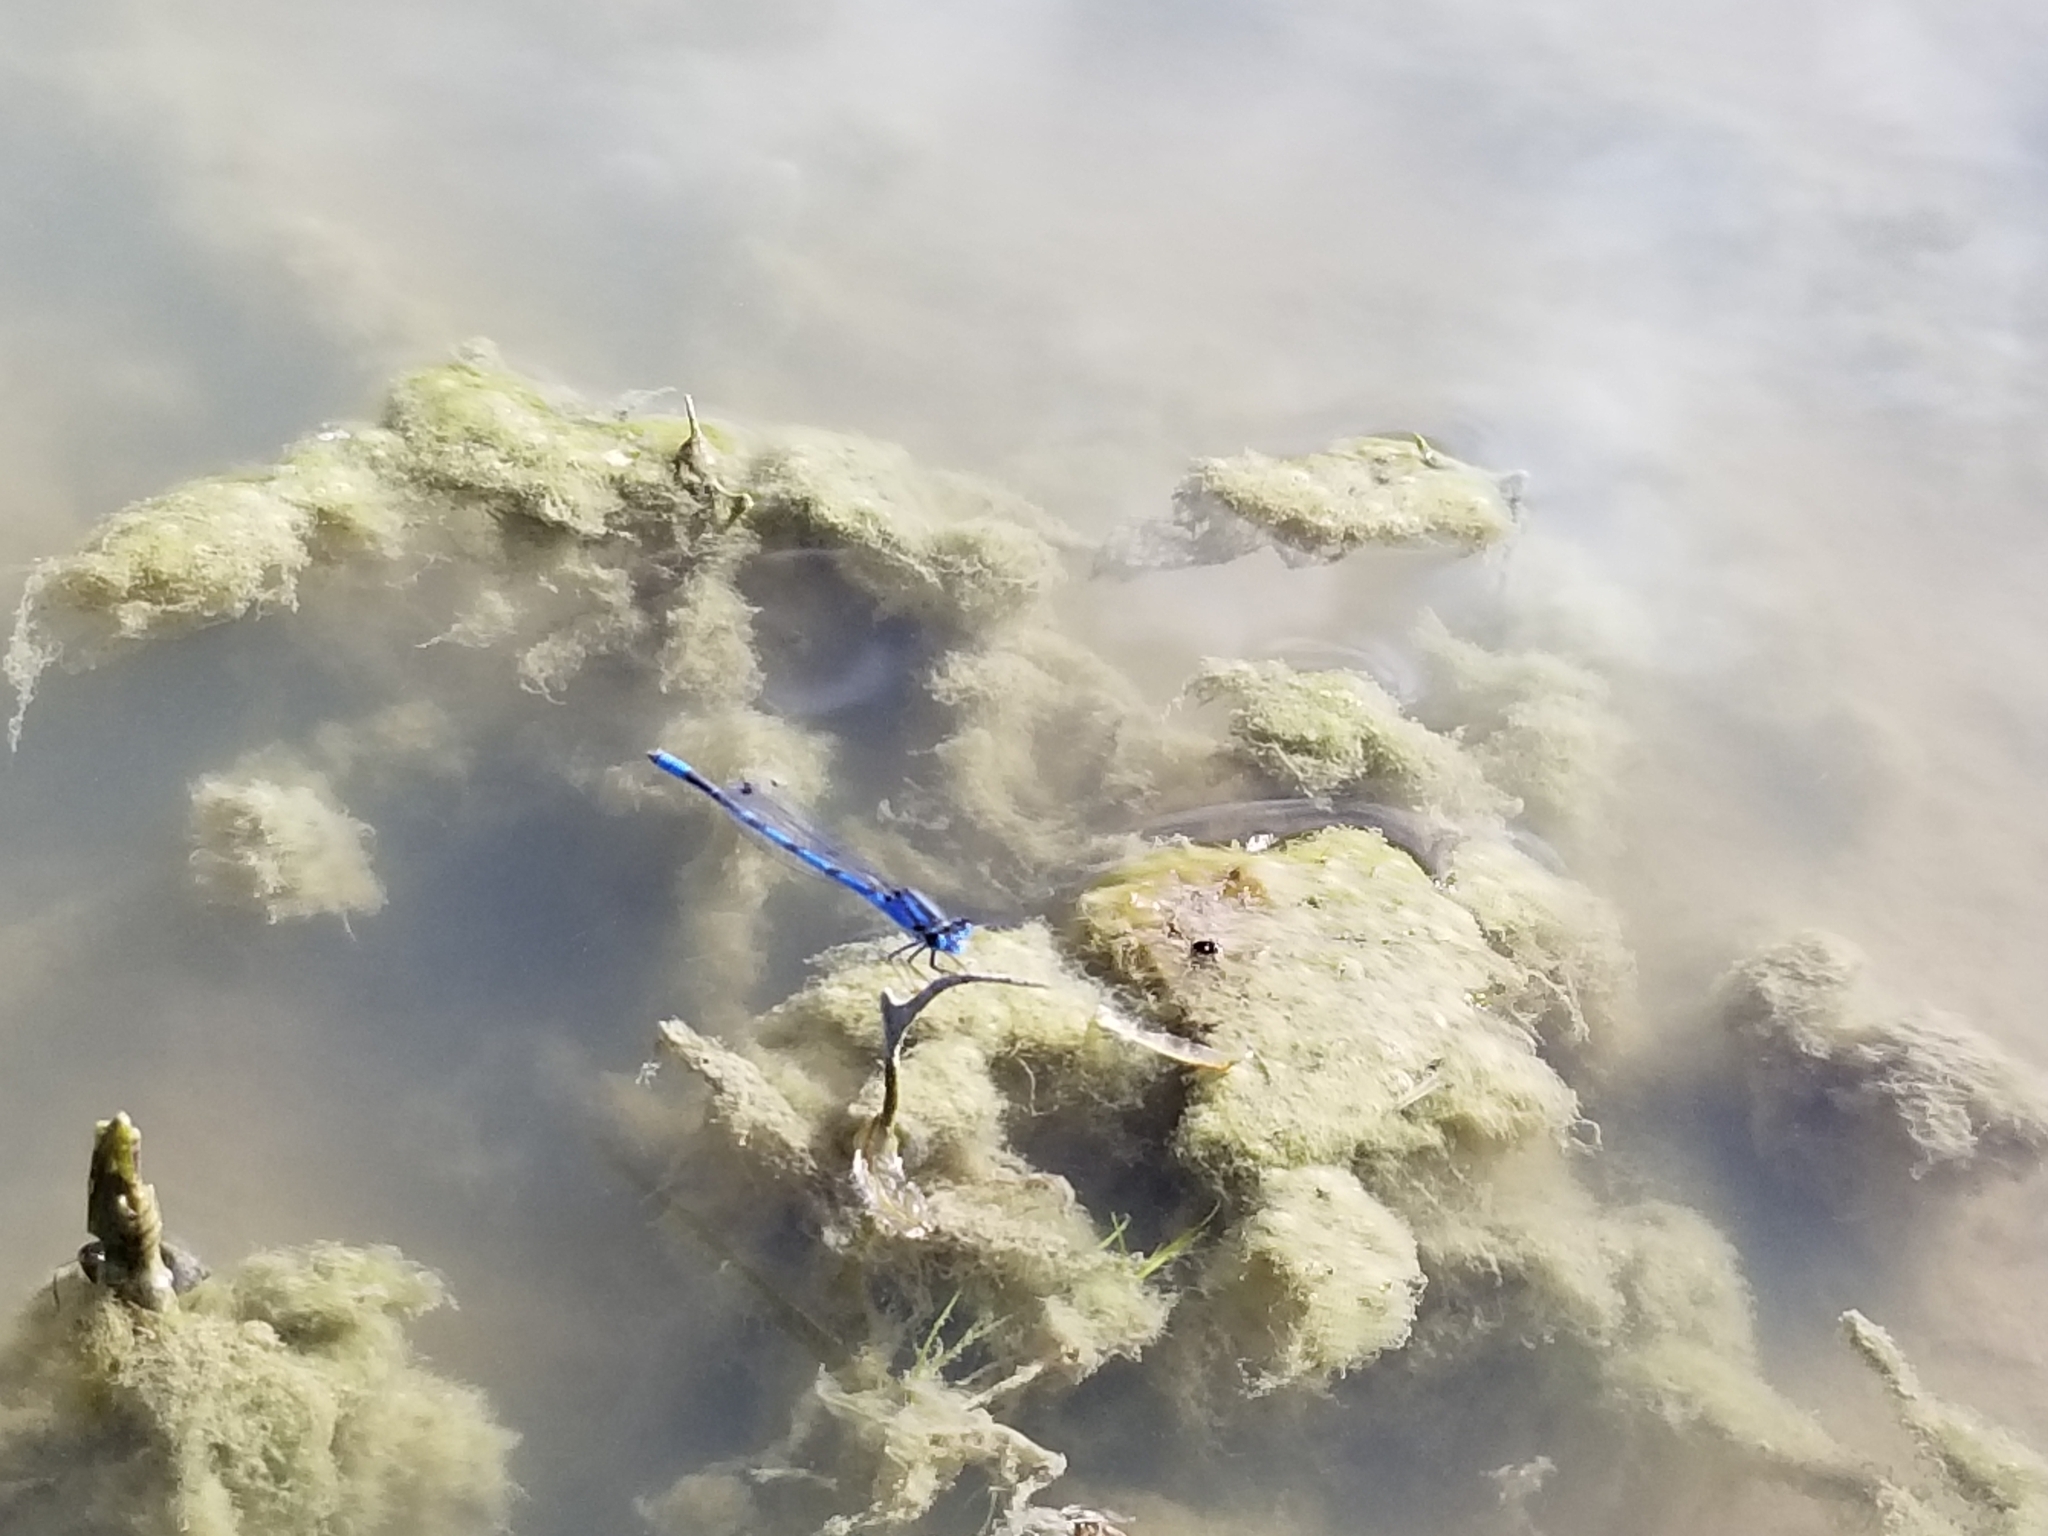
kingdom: Animalia
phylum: Arthropoda
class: Insecta
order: Odonata
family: Coenagrionidae
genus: Enallagma
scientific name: Enallagma civile
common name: Damselfly
